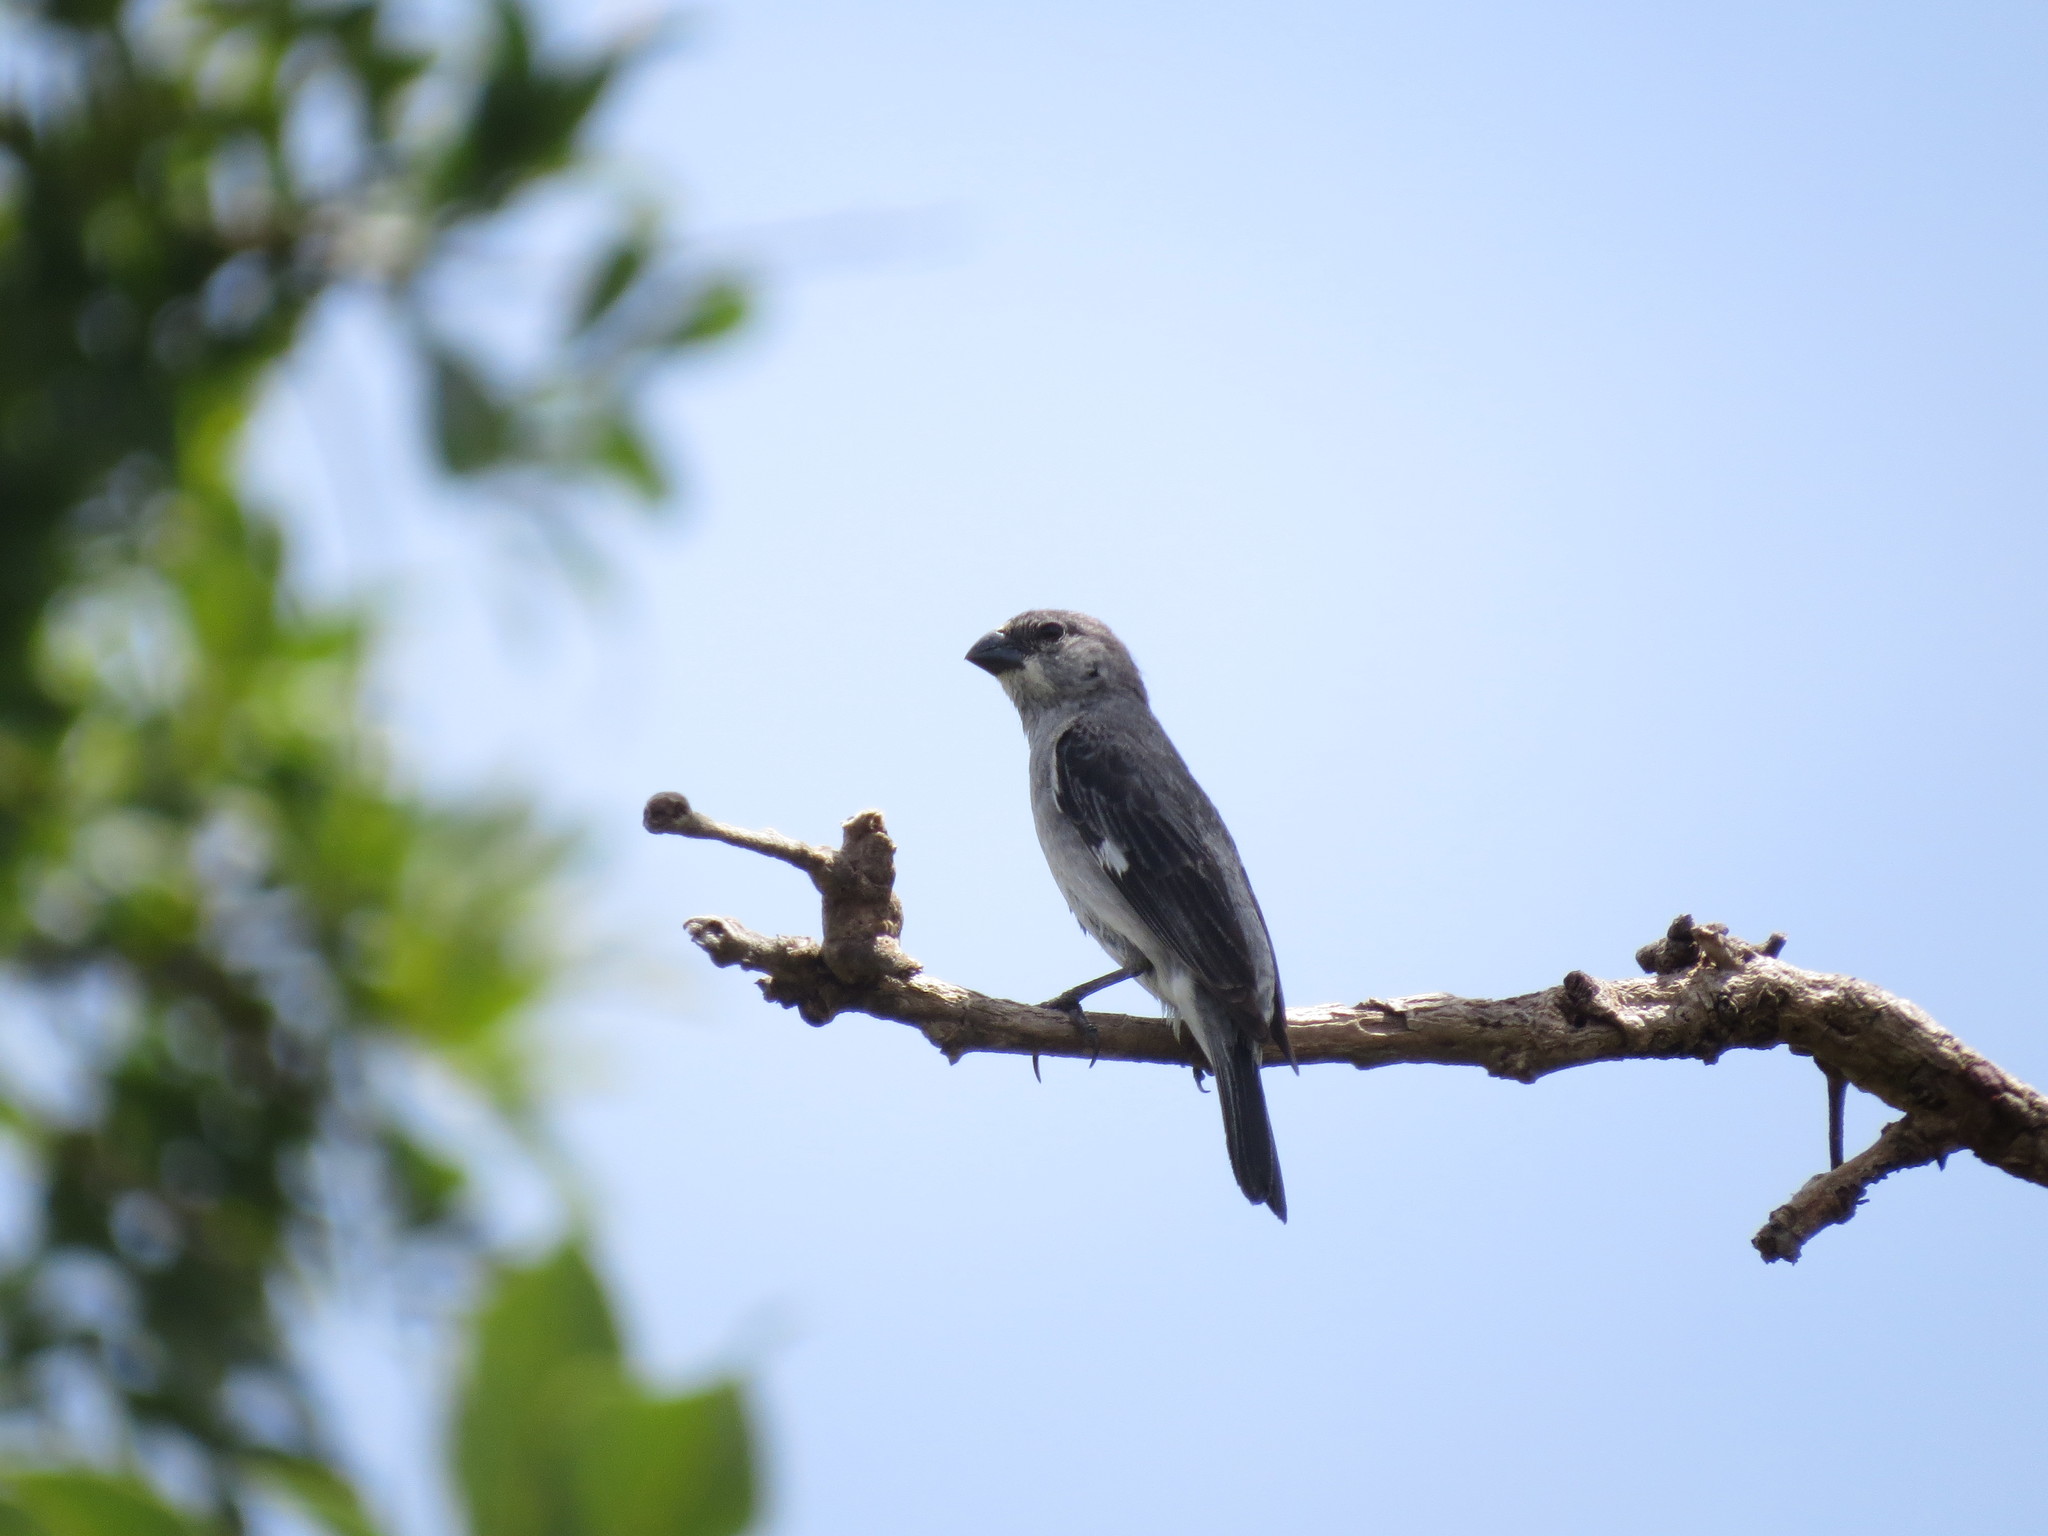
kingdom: Animalia
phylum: Chordata
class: Aves
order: Passeriformes
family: Thraupidae
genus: Sporophila
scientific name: Sporophila plumbea
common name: Plumbeous seedeater
